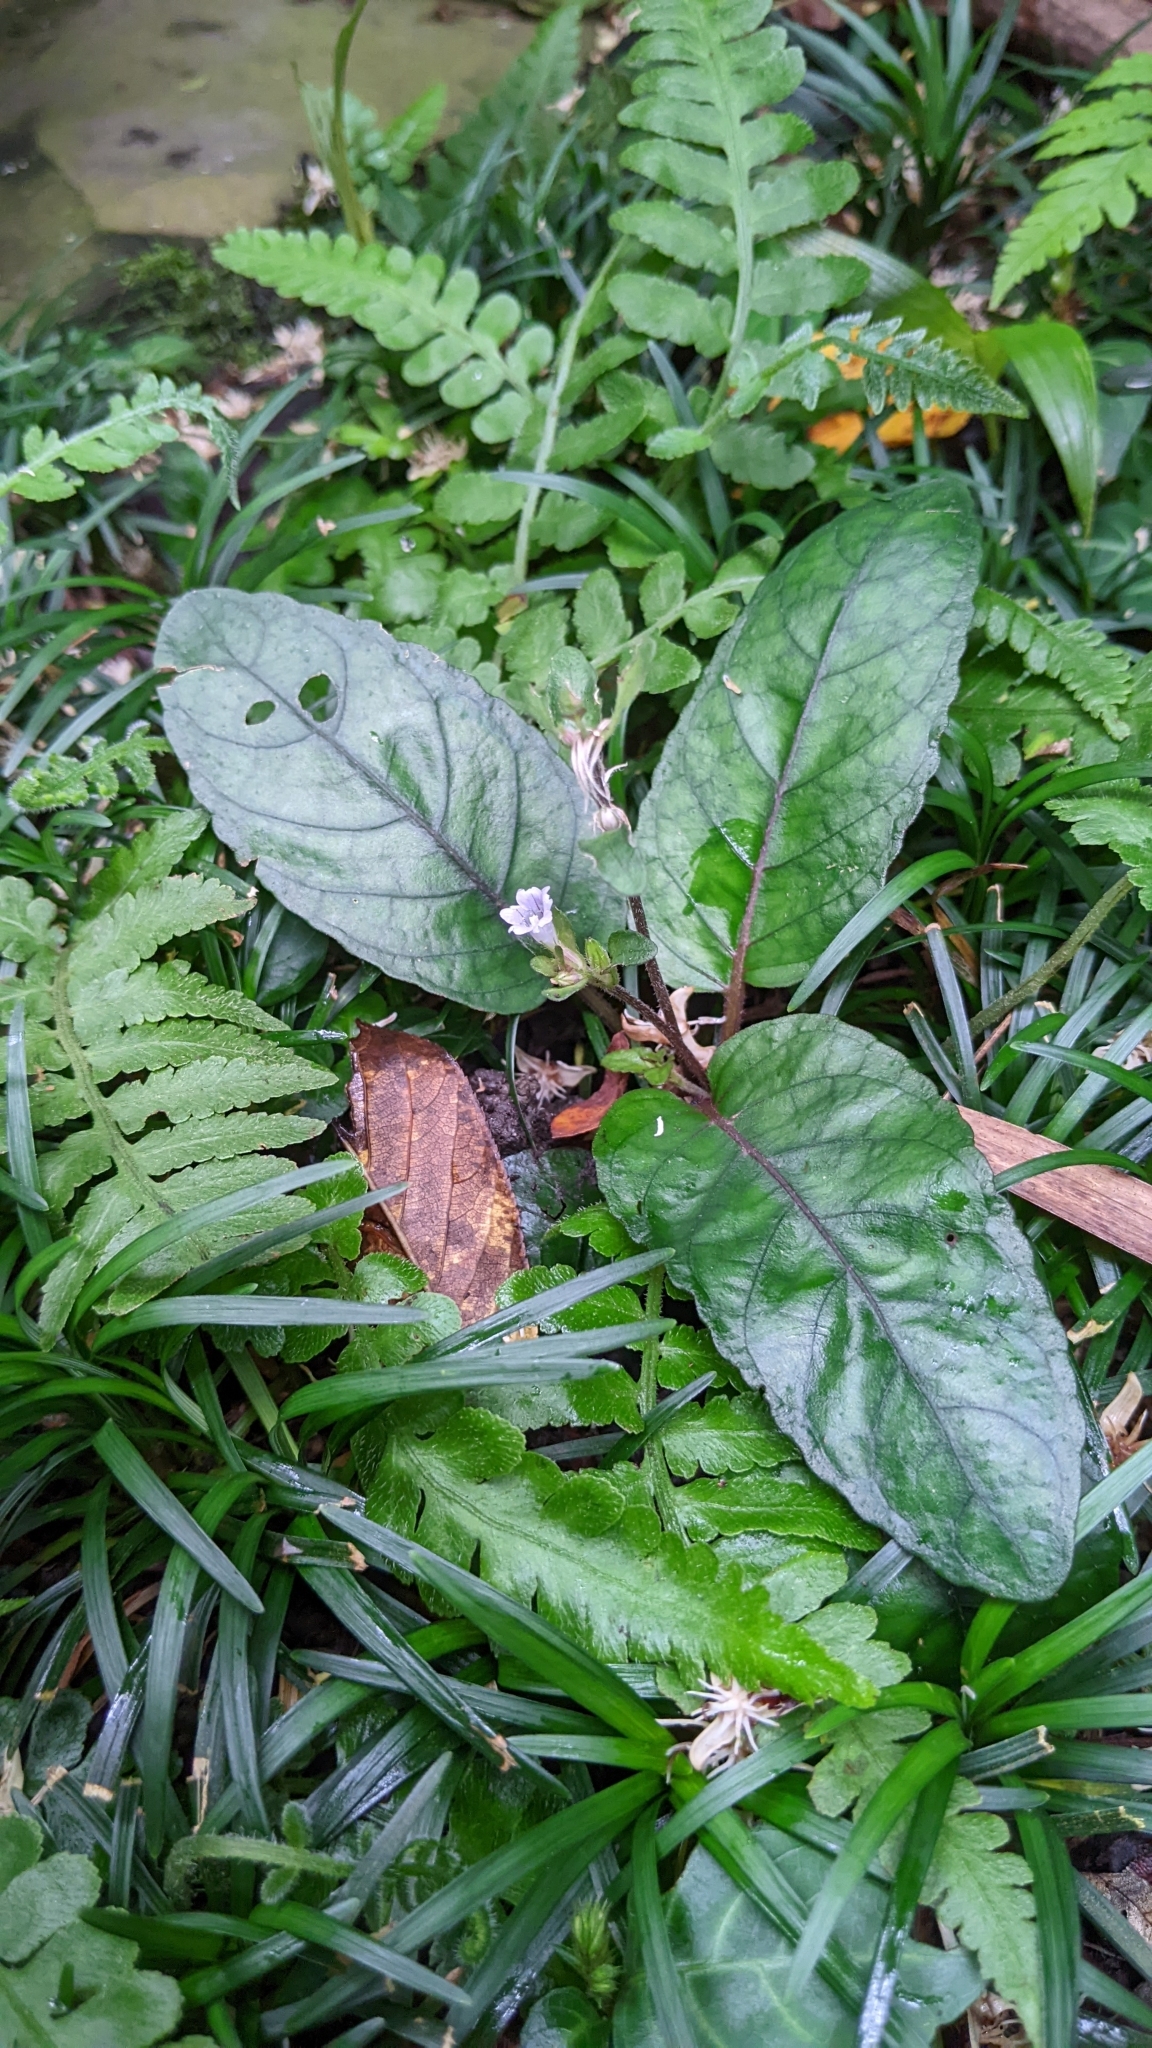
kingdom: Plantae
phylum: Tracheophyta
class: Magnoliopsida
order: Lamiales
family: Acanthaceae
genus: Strobilanthes
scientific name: Strobilanthes reptans
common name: Acanthaceae
